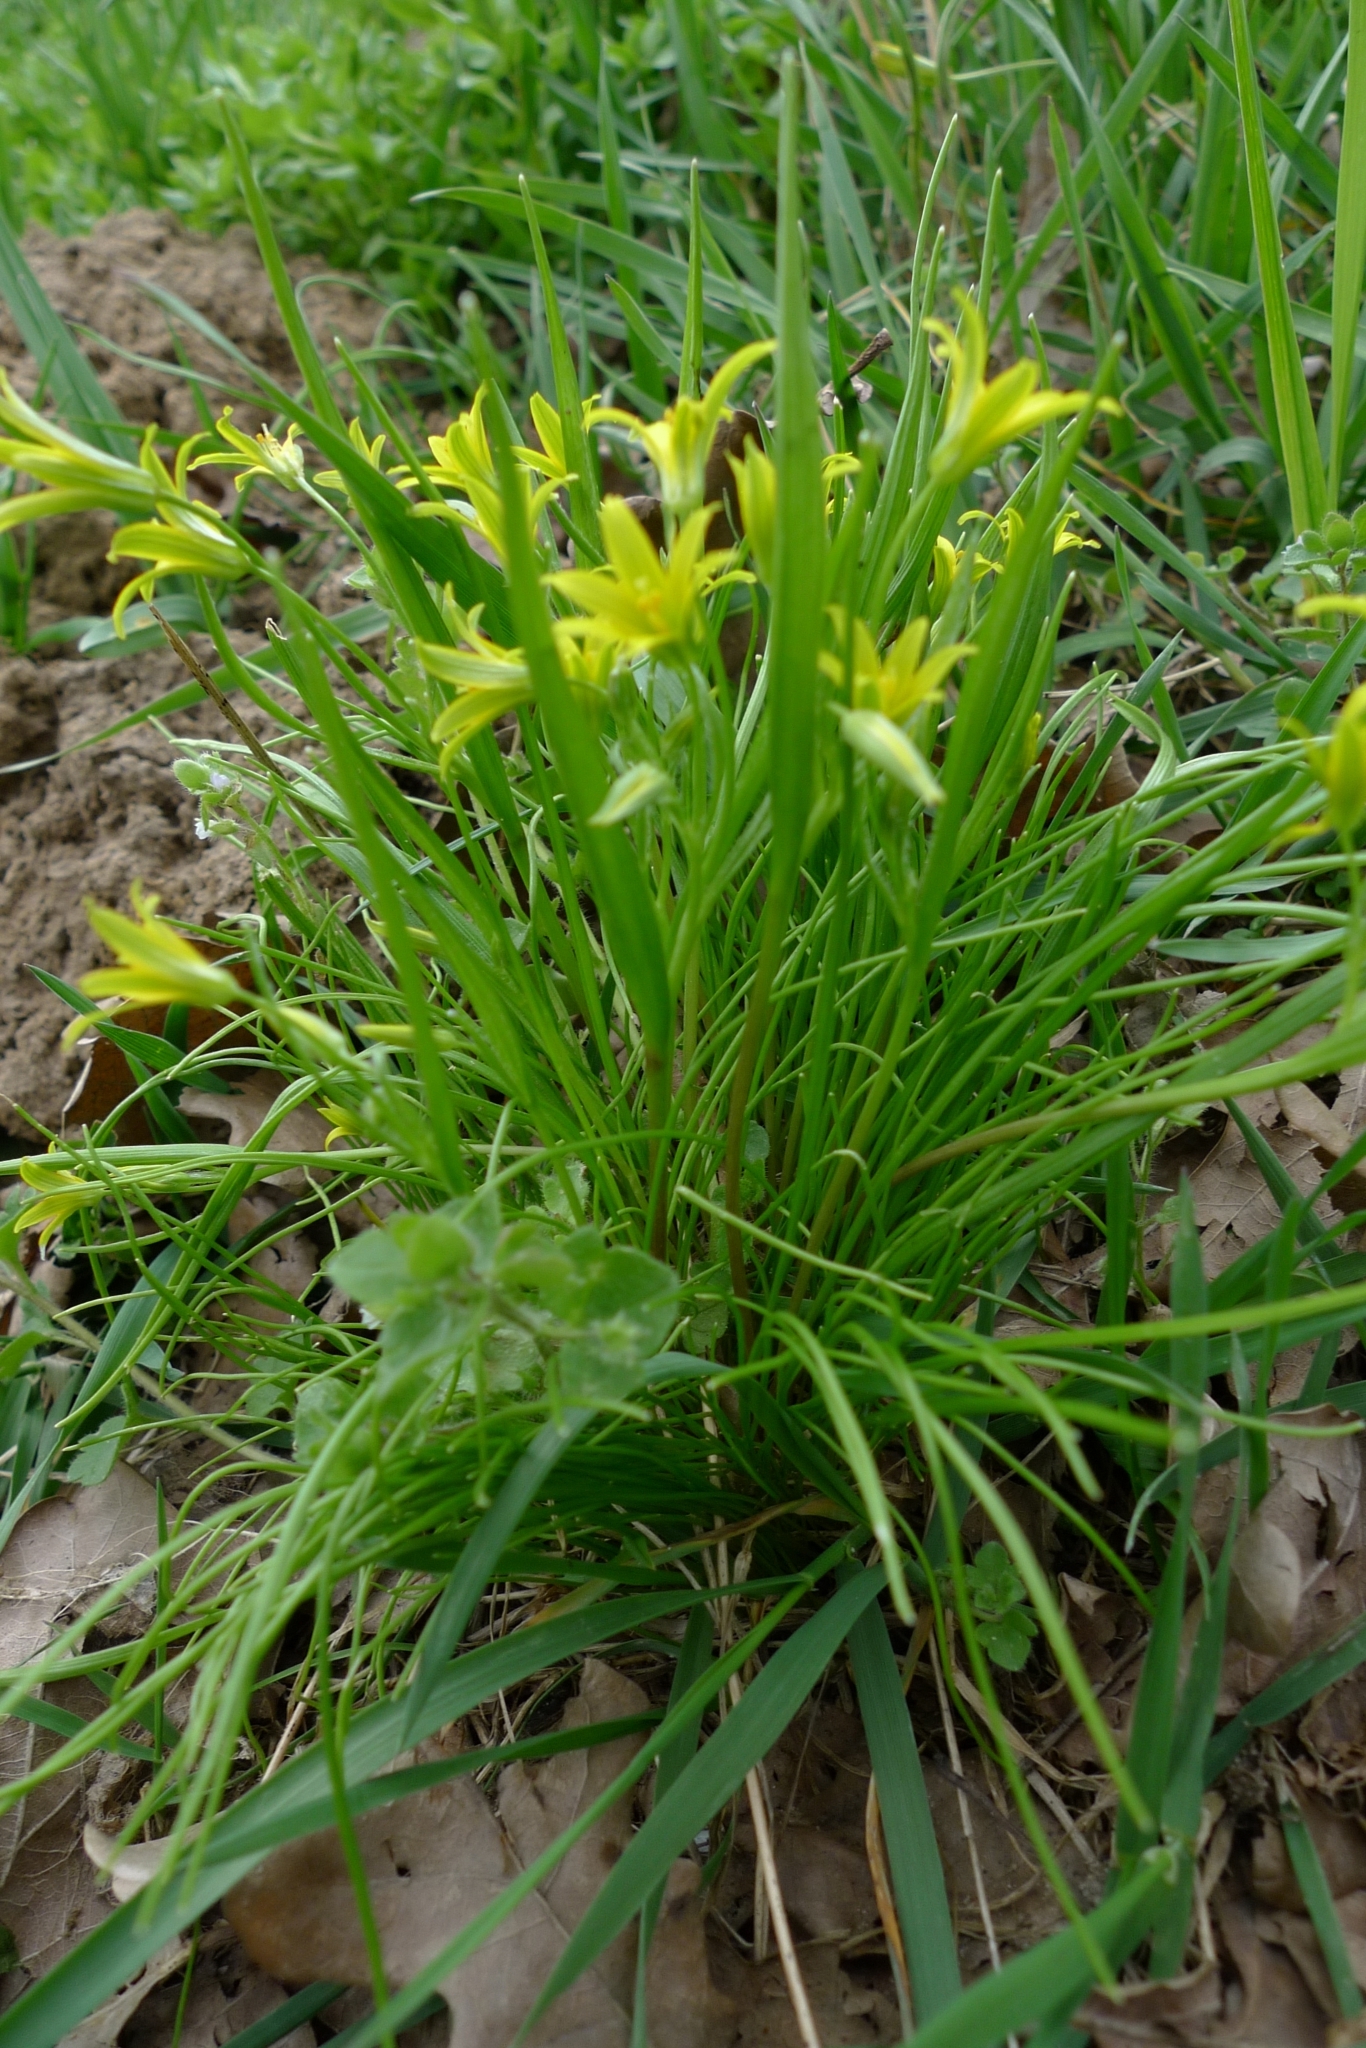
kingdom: Plantae
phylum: Tracheophyta
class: Liliopsida
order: Liliales
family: Liliaceae
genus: Gagea
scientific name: Gagea minima
